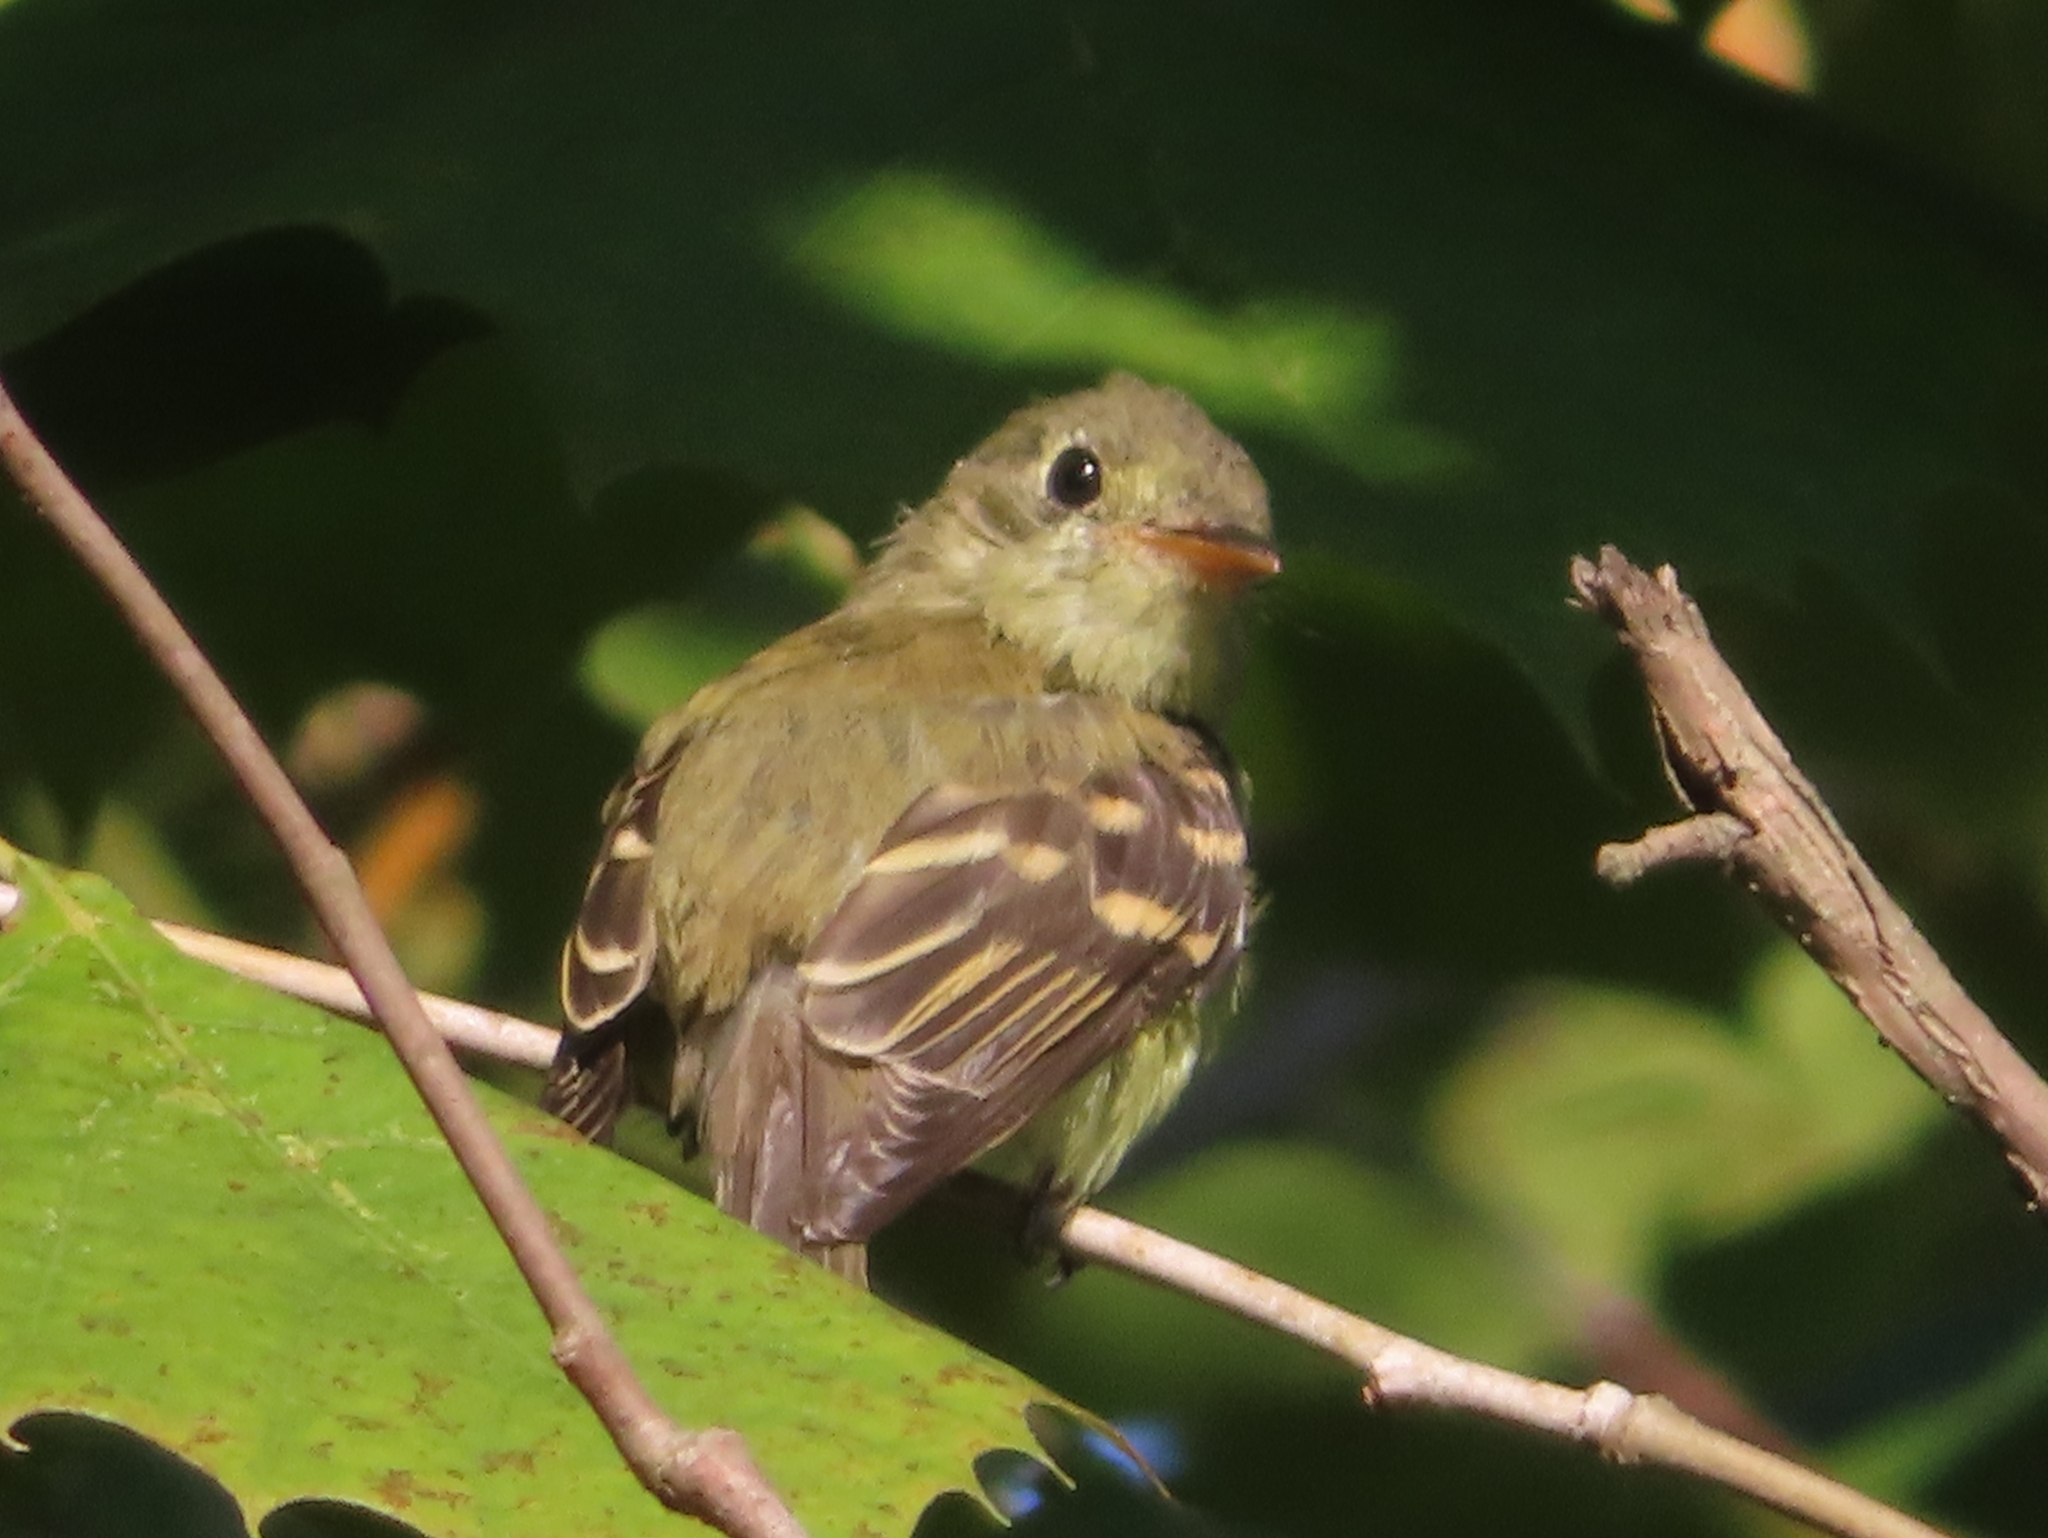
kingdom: Animalia
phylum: Chordata
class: Aves
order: Passeriformes
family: Tyrannidae
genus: Empidonax
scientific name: Empidonax virescens
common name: Acadian flycatcher
